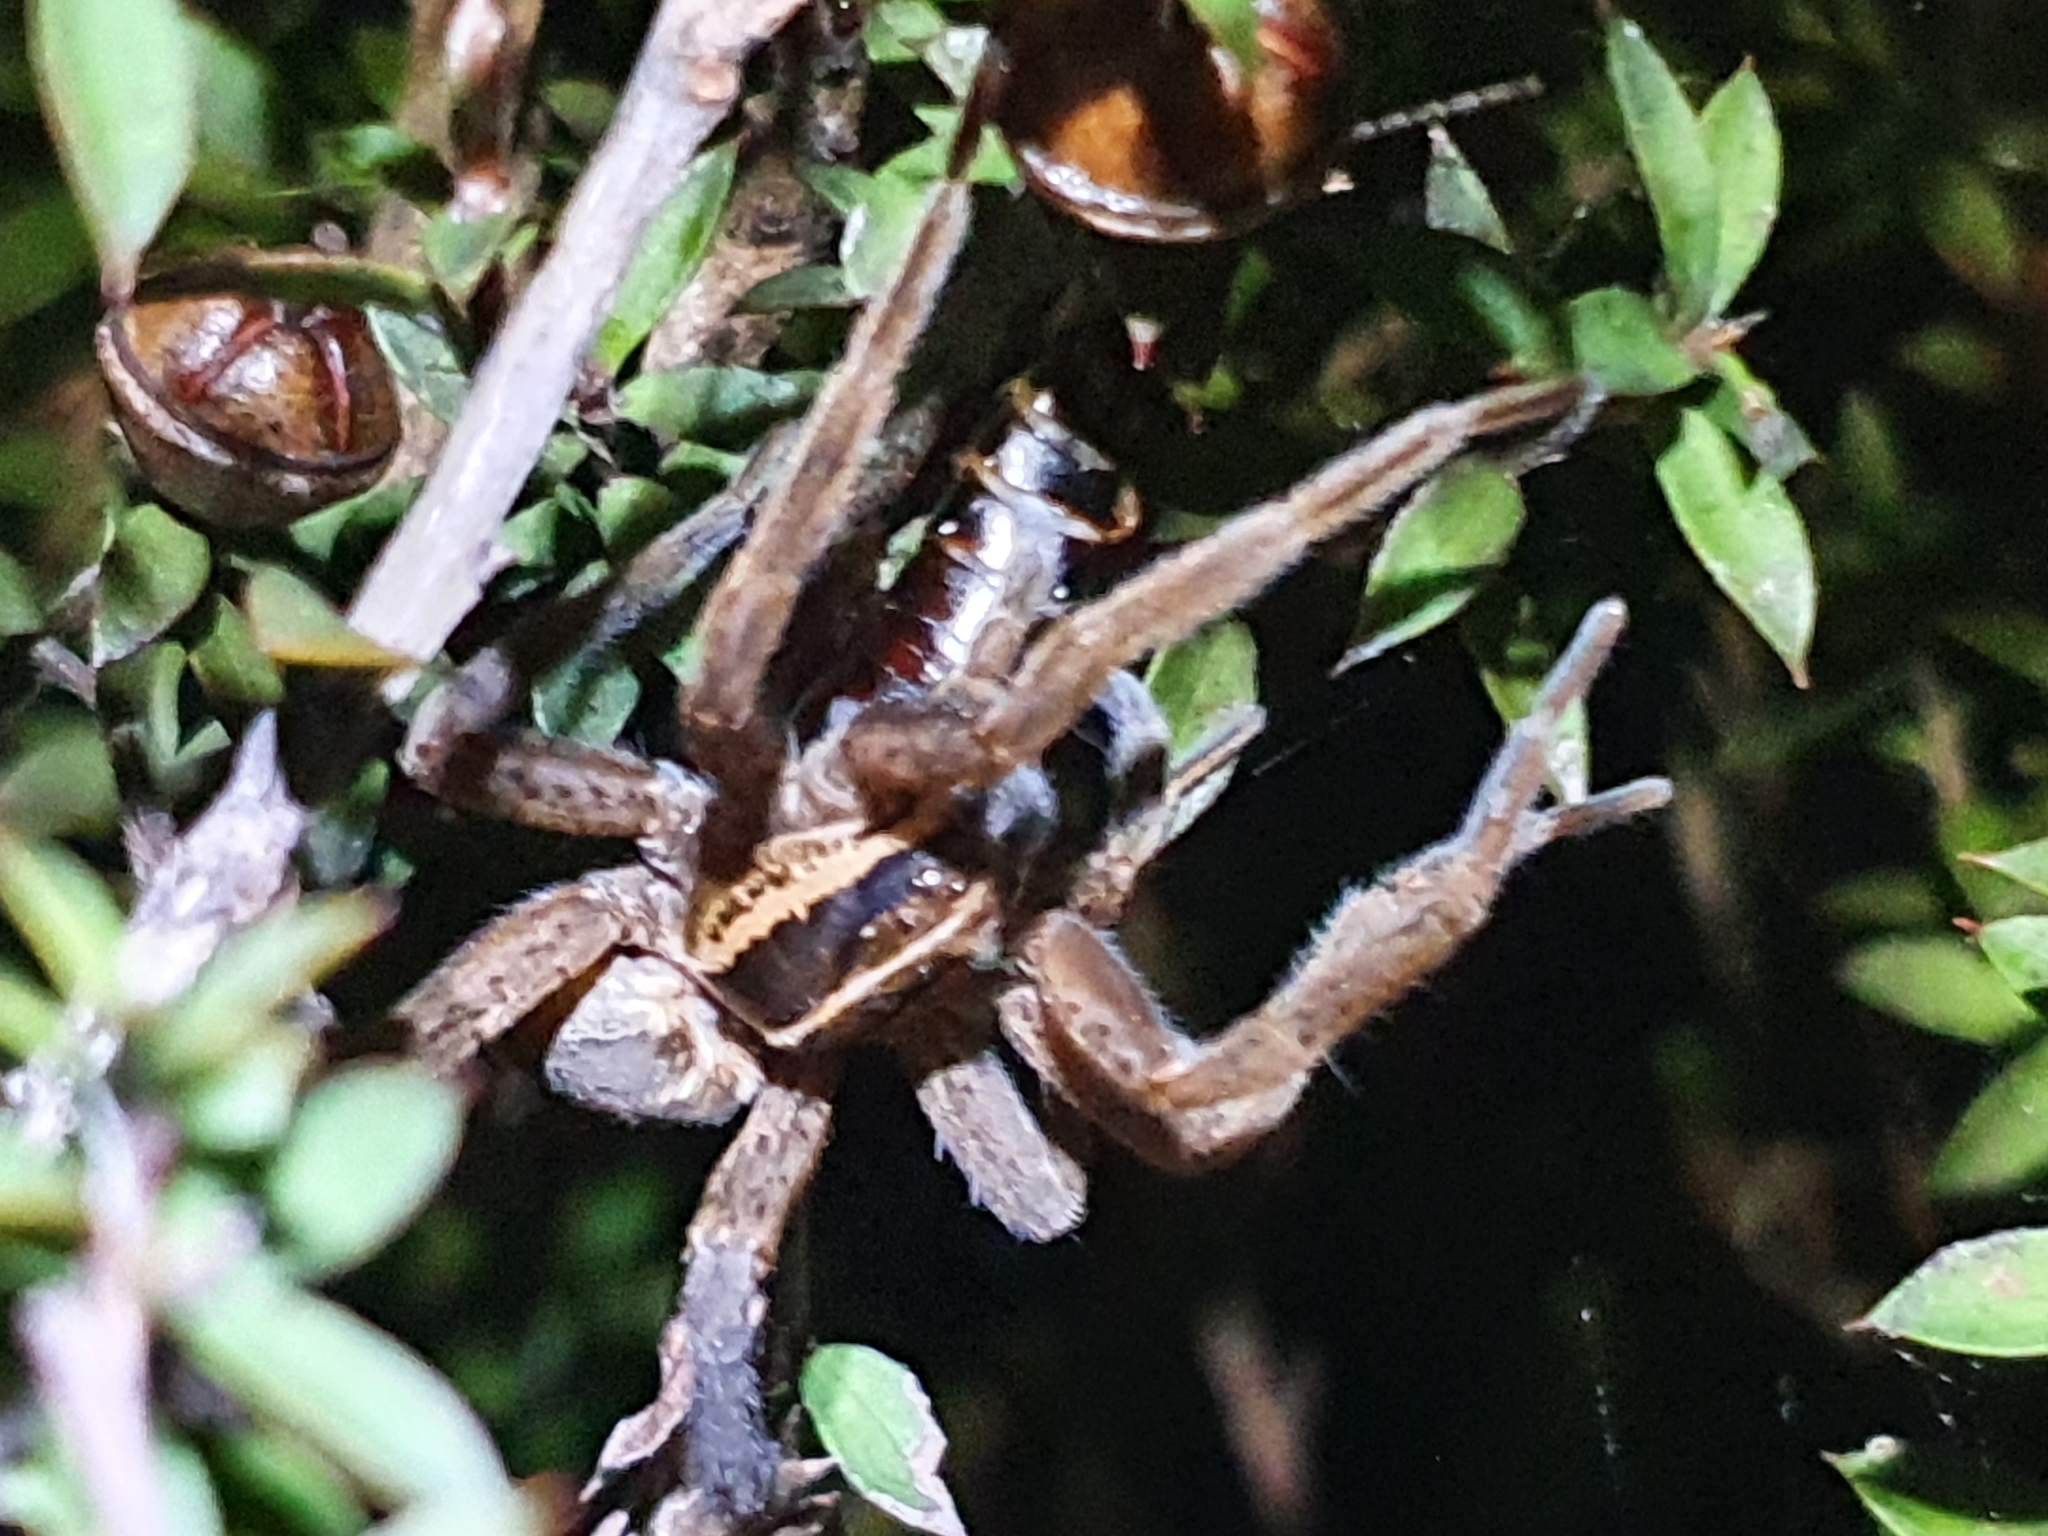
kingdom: Animalia
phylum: Arthropoda
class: Arachnida
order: Araneae
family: Pisauridae
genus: Dolomedes
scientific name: Dolomedes minor
